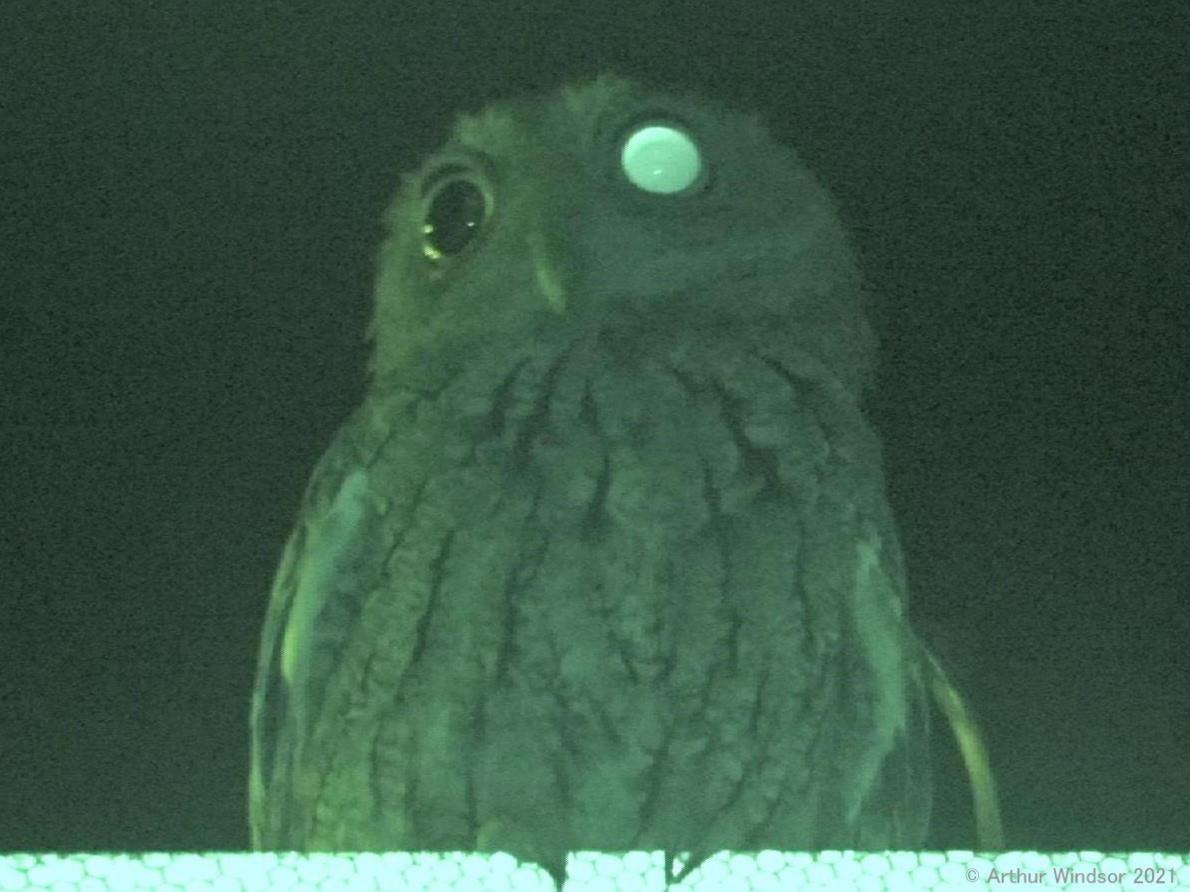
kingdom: Animalia
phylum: Chordata
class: Aves
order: Strigiformes
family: Strigidae
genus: Megascops
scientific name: Megascops asio
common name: Eastern screech-owl
